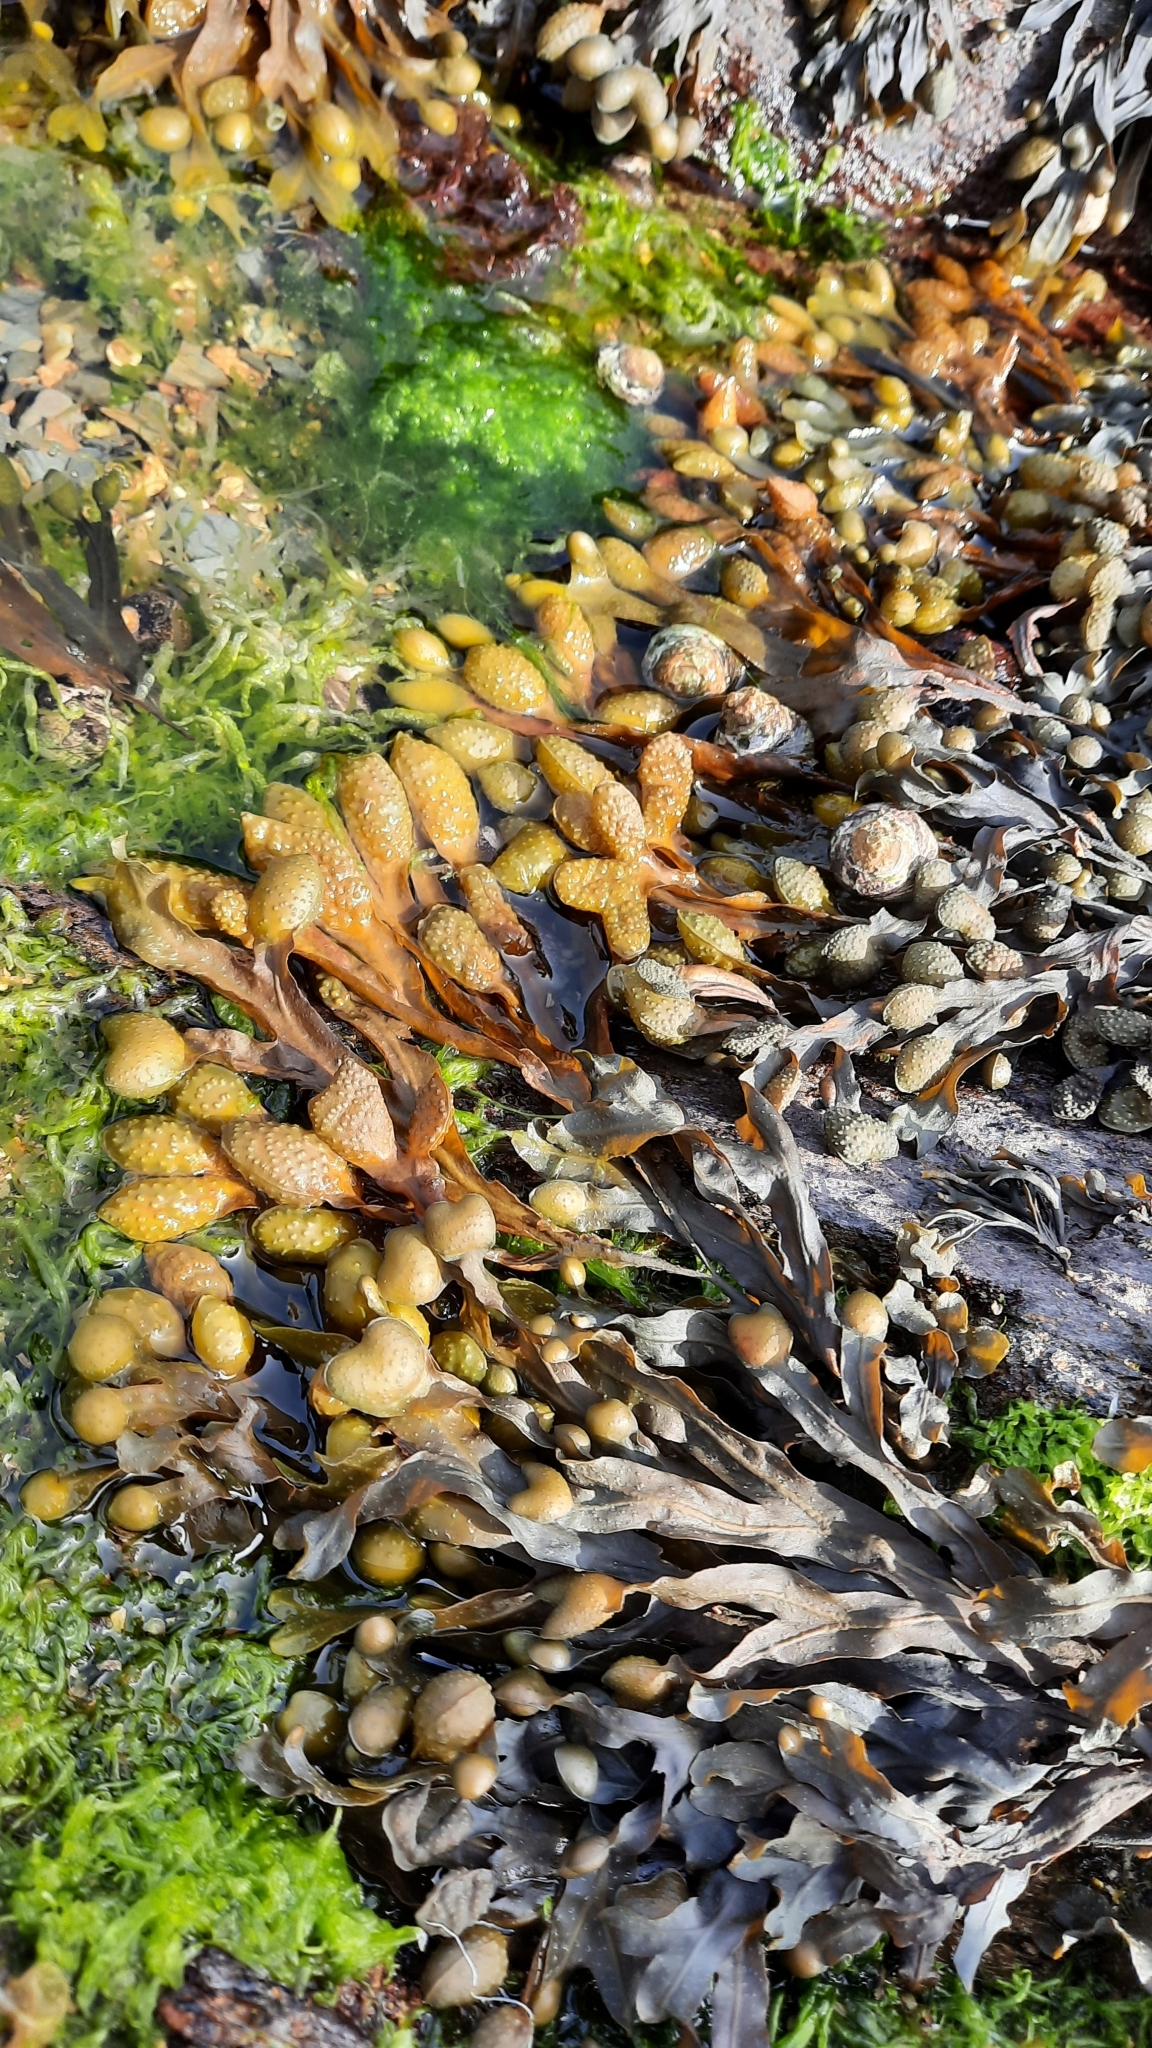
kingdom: Chromista
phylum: Ochrophyta
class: Phaeophyceae
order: Fucales
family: Fucaceae
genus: Fucus
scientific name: Fucus spiralis
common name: Spiral wrack
